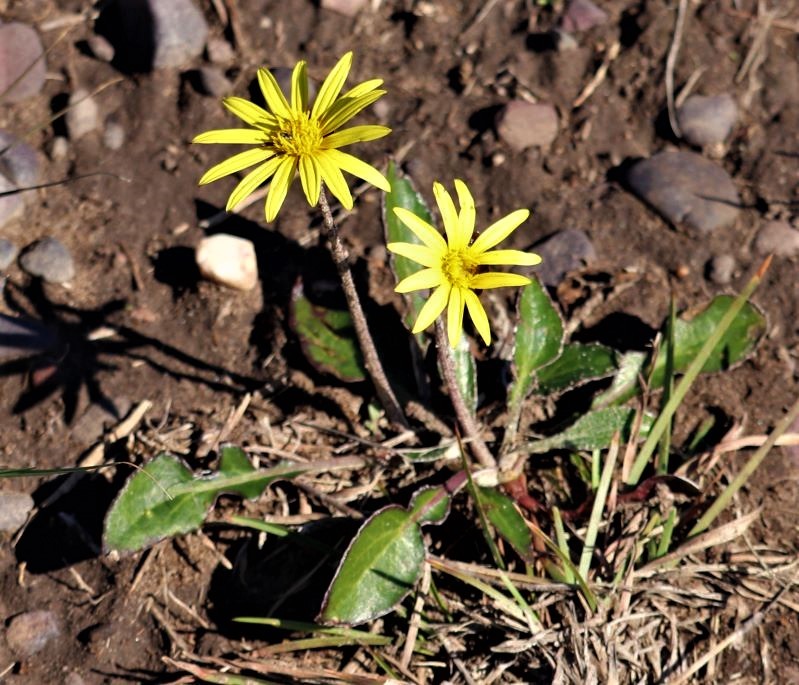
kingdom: Plantae
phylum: Tracheophyta
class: Magnoliopsida
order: Asterales
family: Asteraceae
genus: Haplocarpha
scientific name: Haplocarpha lyrata
